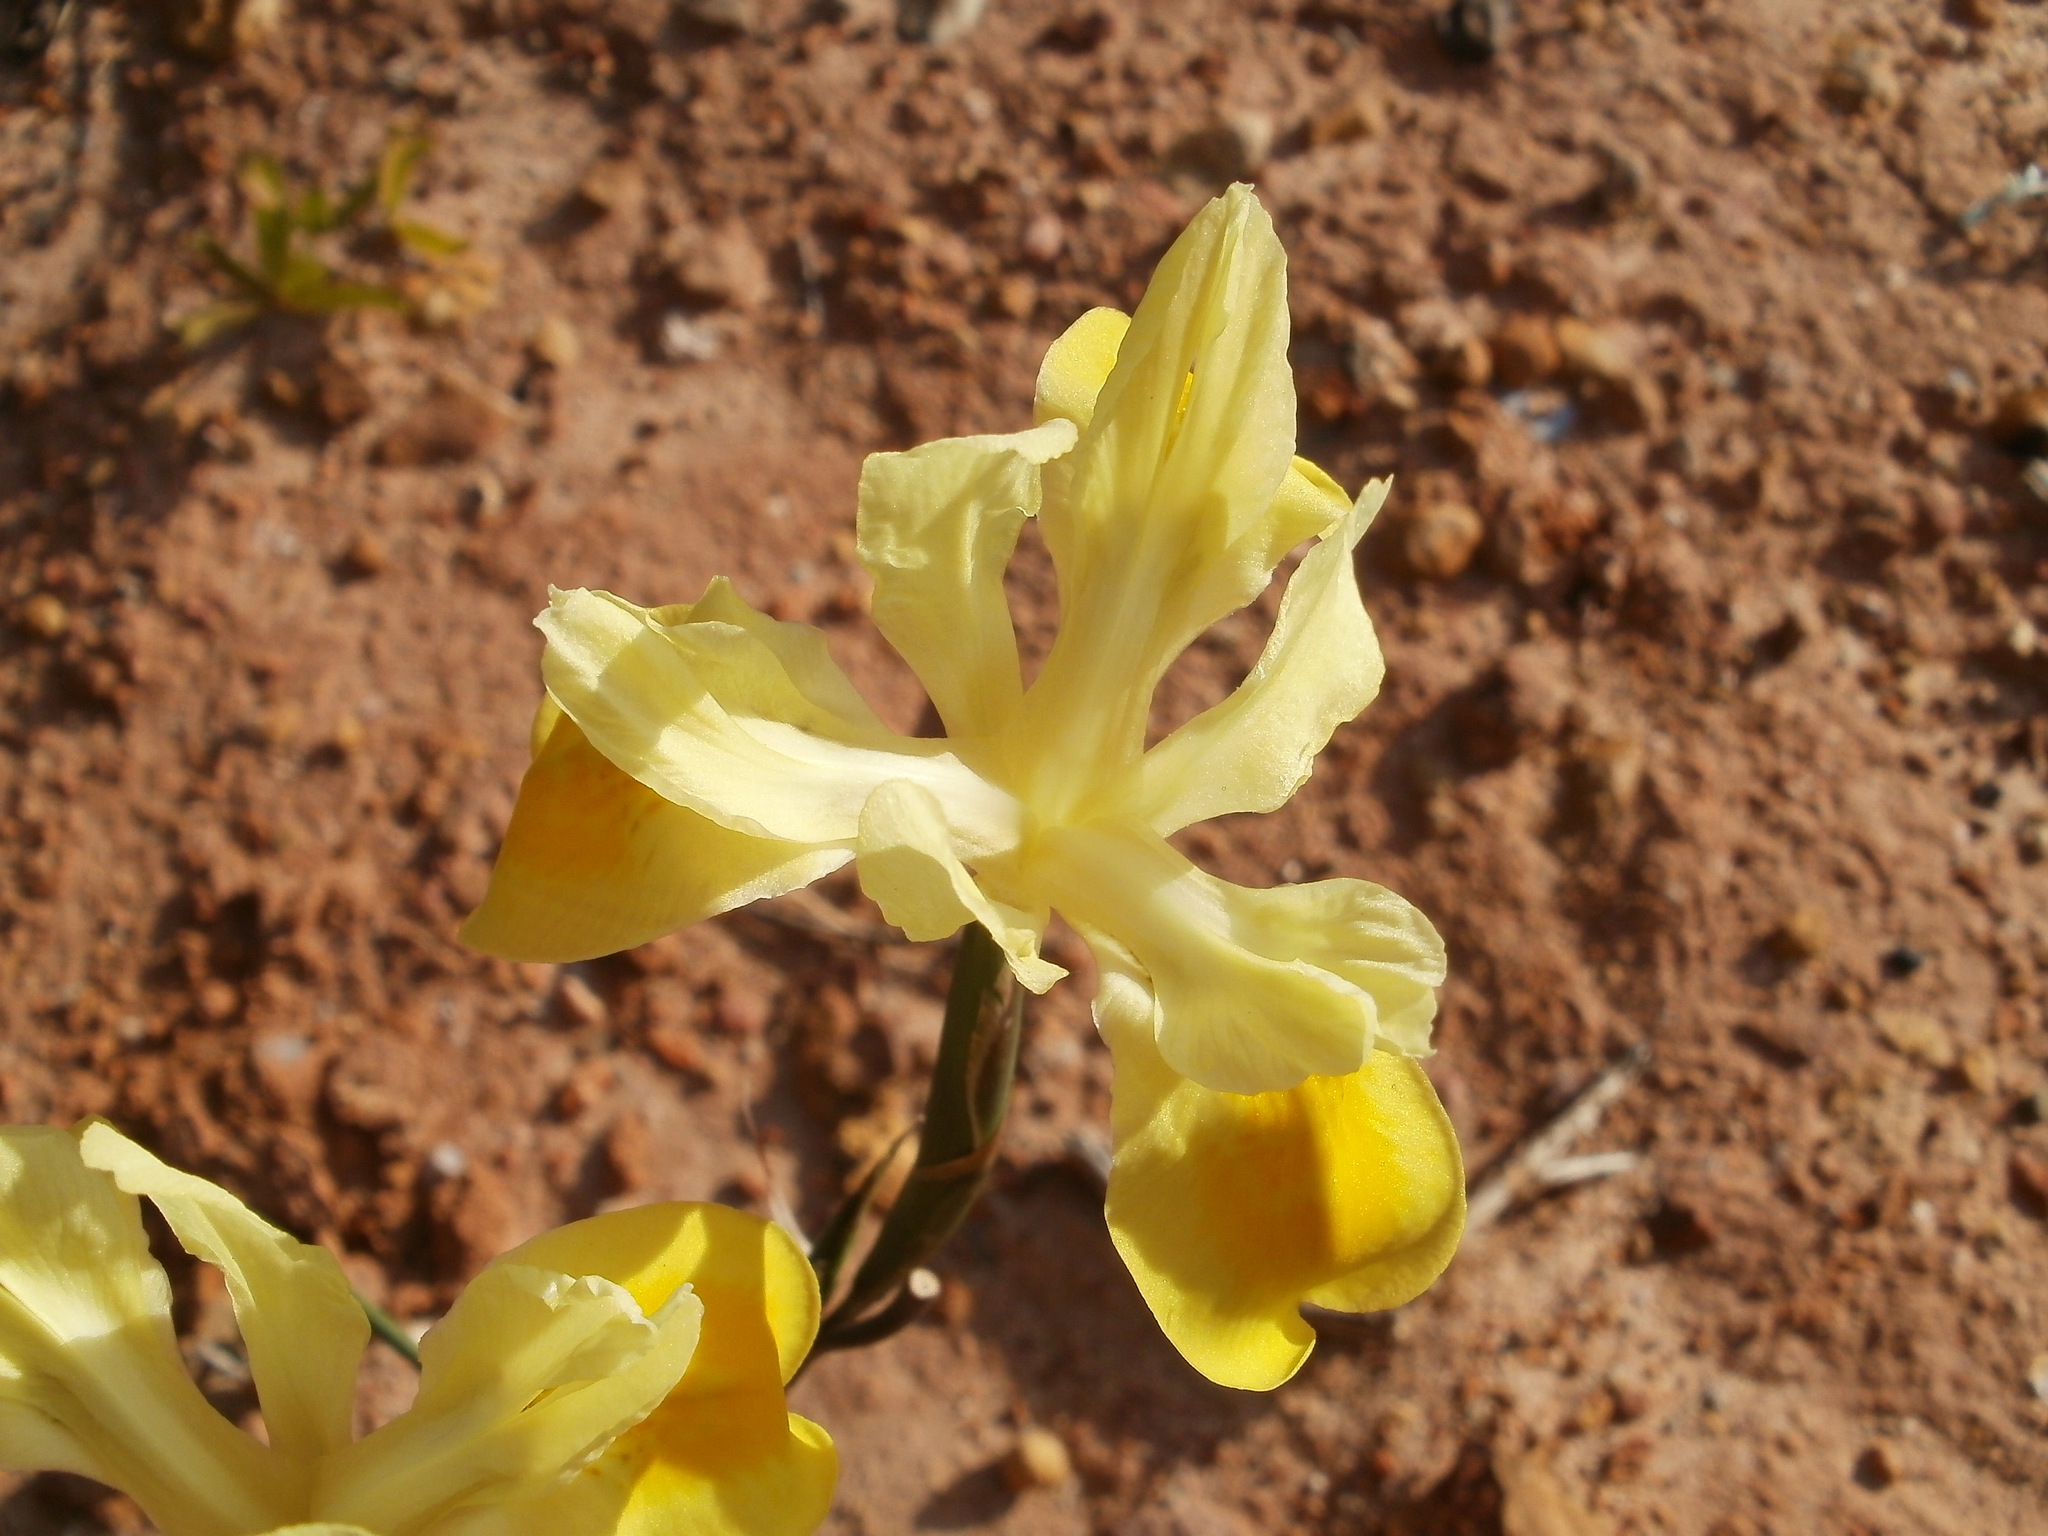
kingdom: Plantae
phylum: Tracheophyta
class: Liliopsida
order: Asparagales
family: Iridaceae
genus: Moraea
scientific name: Moraea fugax
